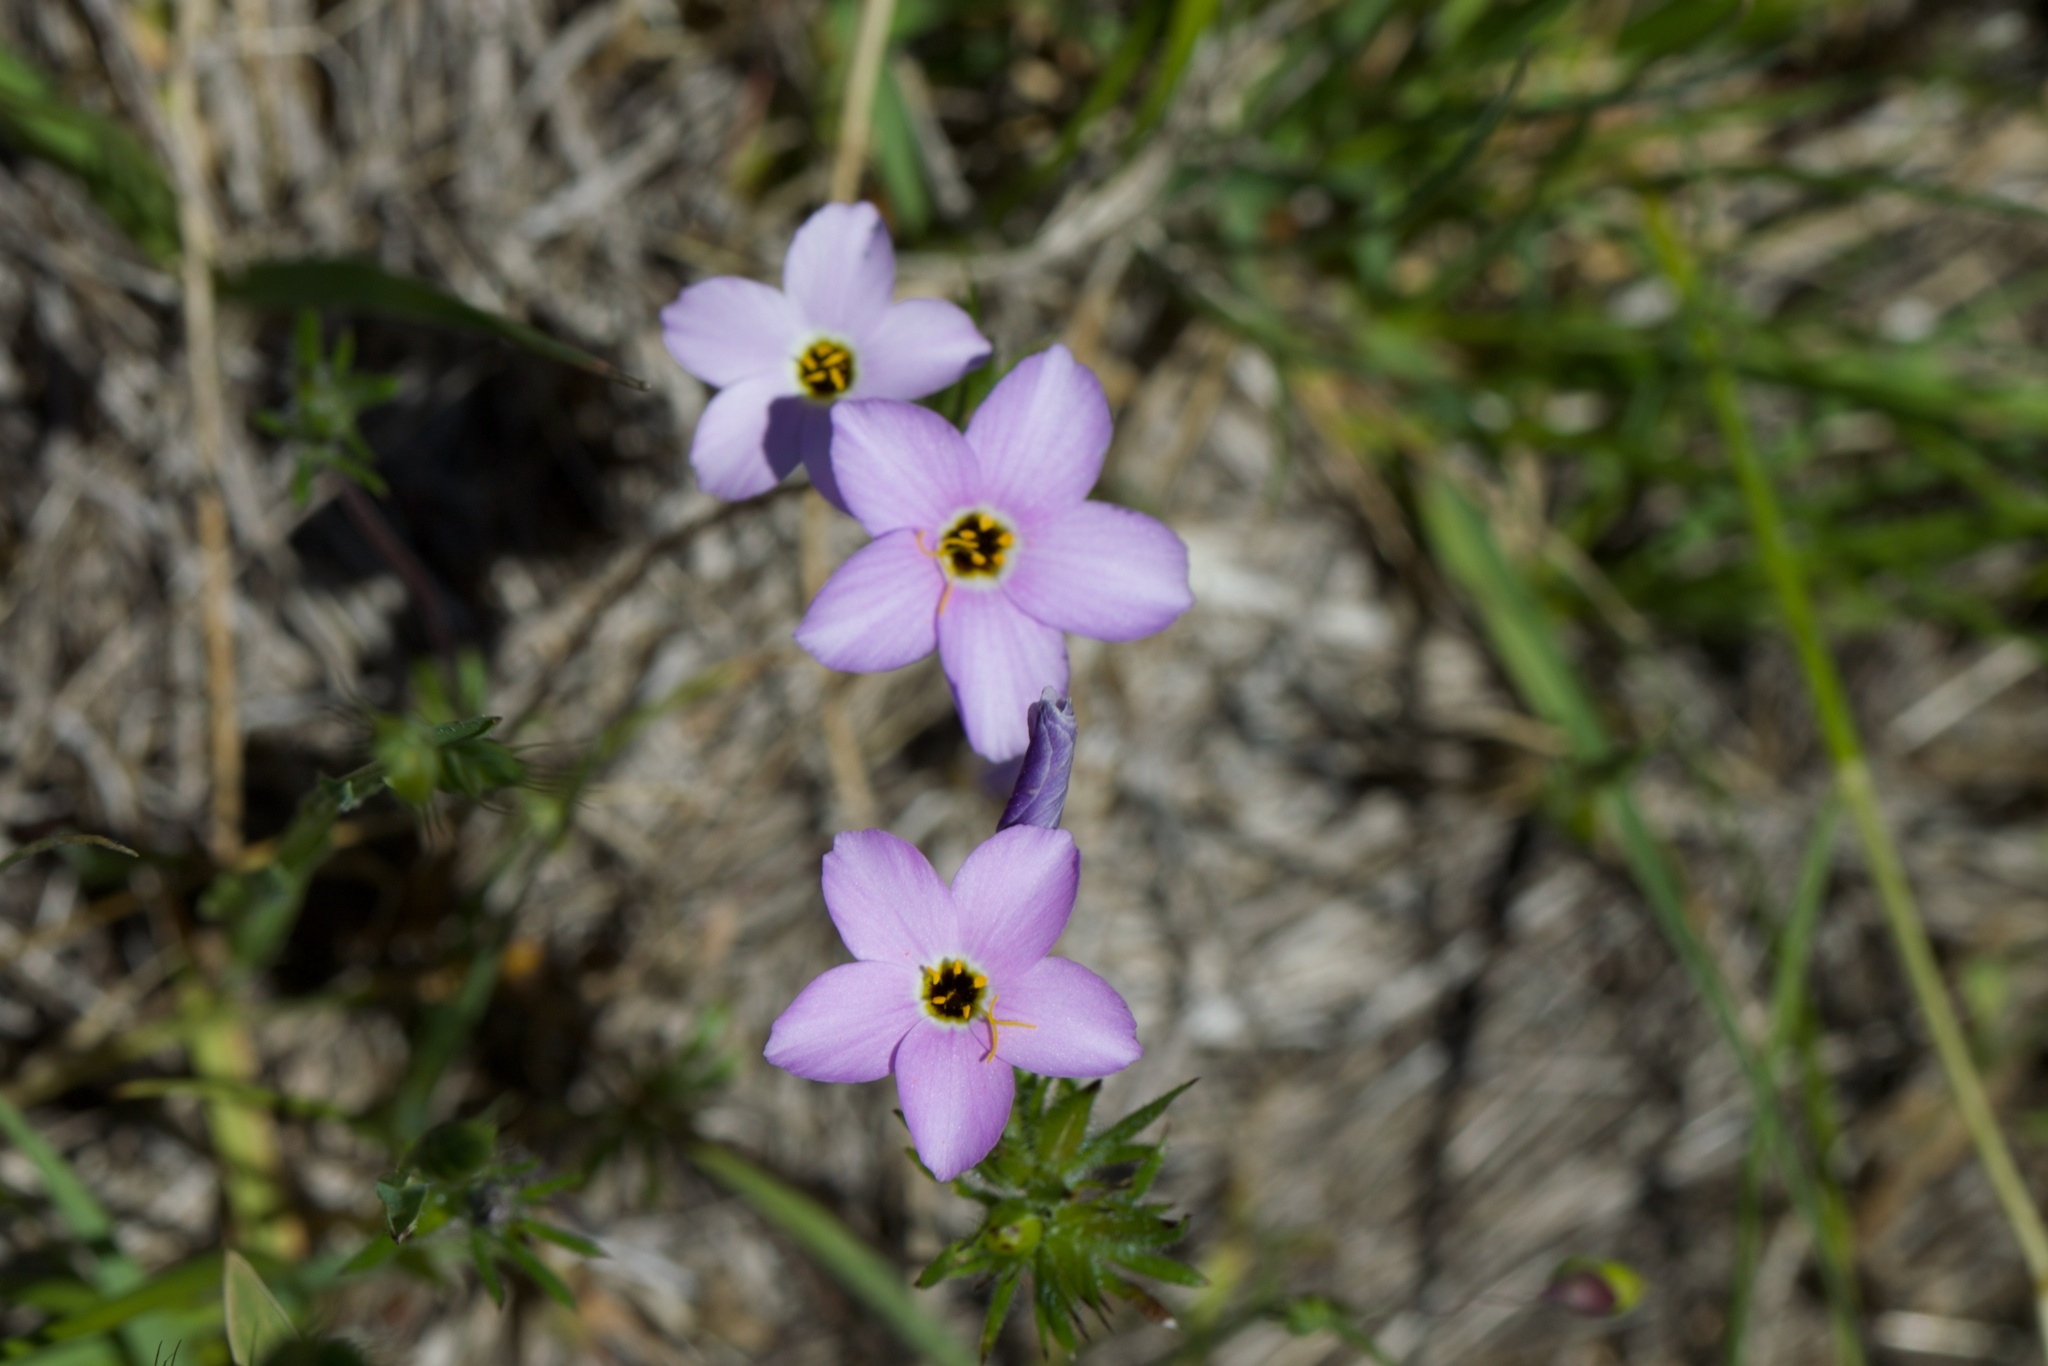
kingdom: Plantae
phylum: Tracheophyta
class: Magnoliopsida
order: Ericales
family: Polemoniaceae
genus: Leptosiphon
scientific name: Leptosiphon androsaceus
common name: False babystars
